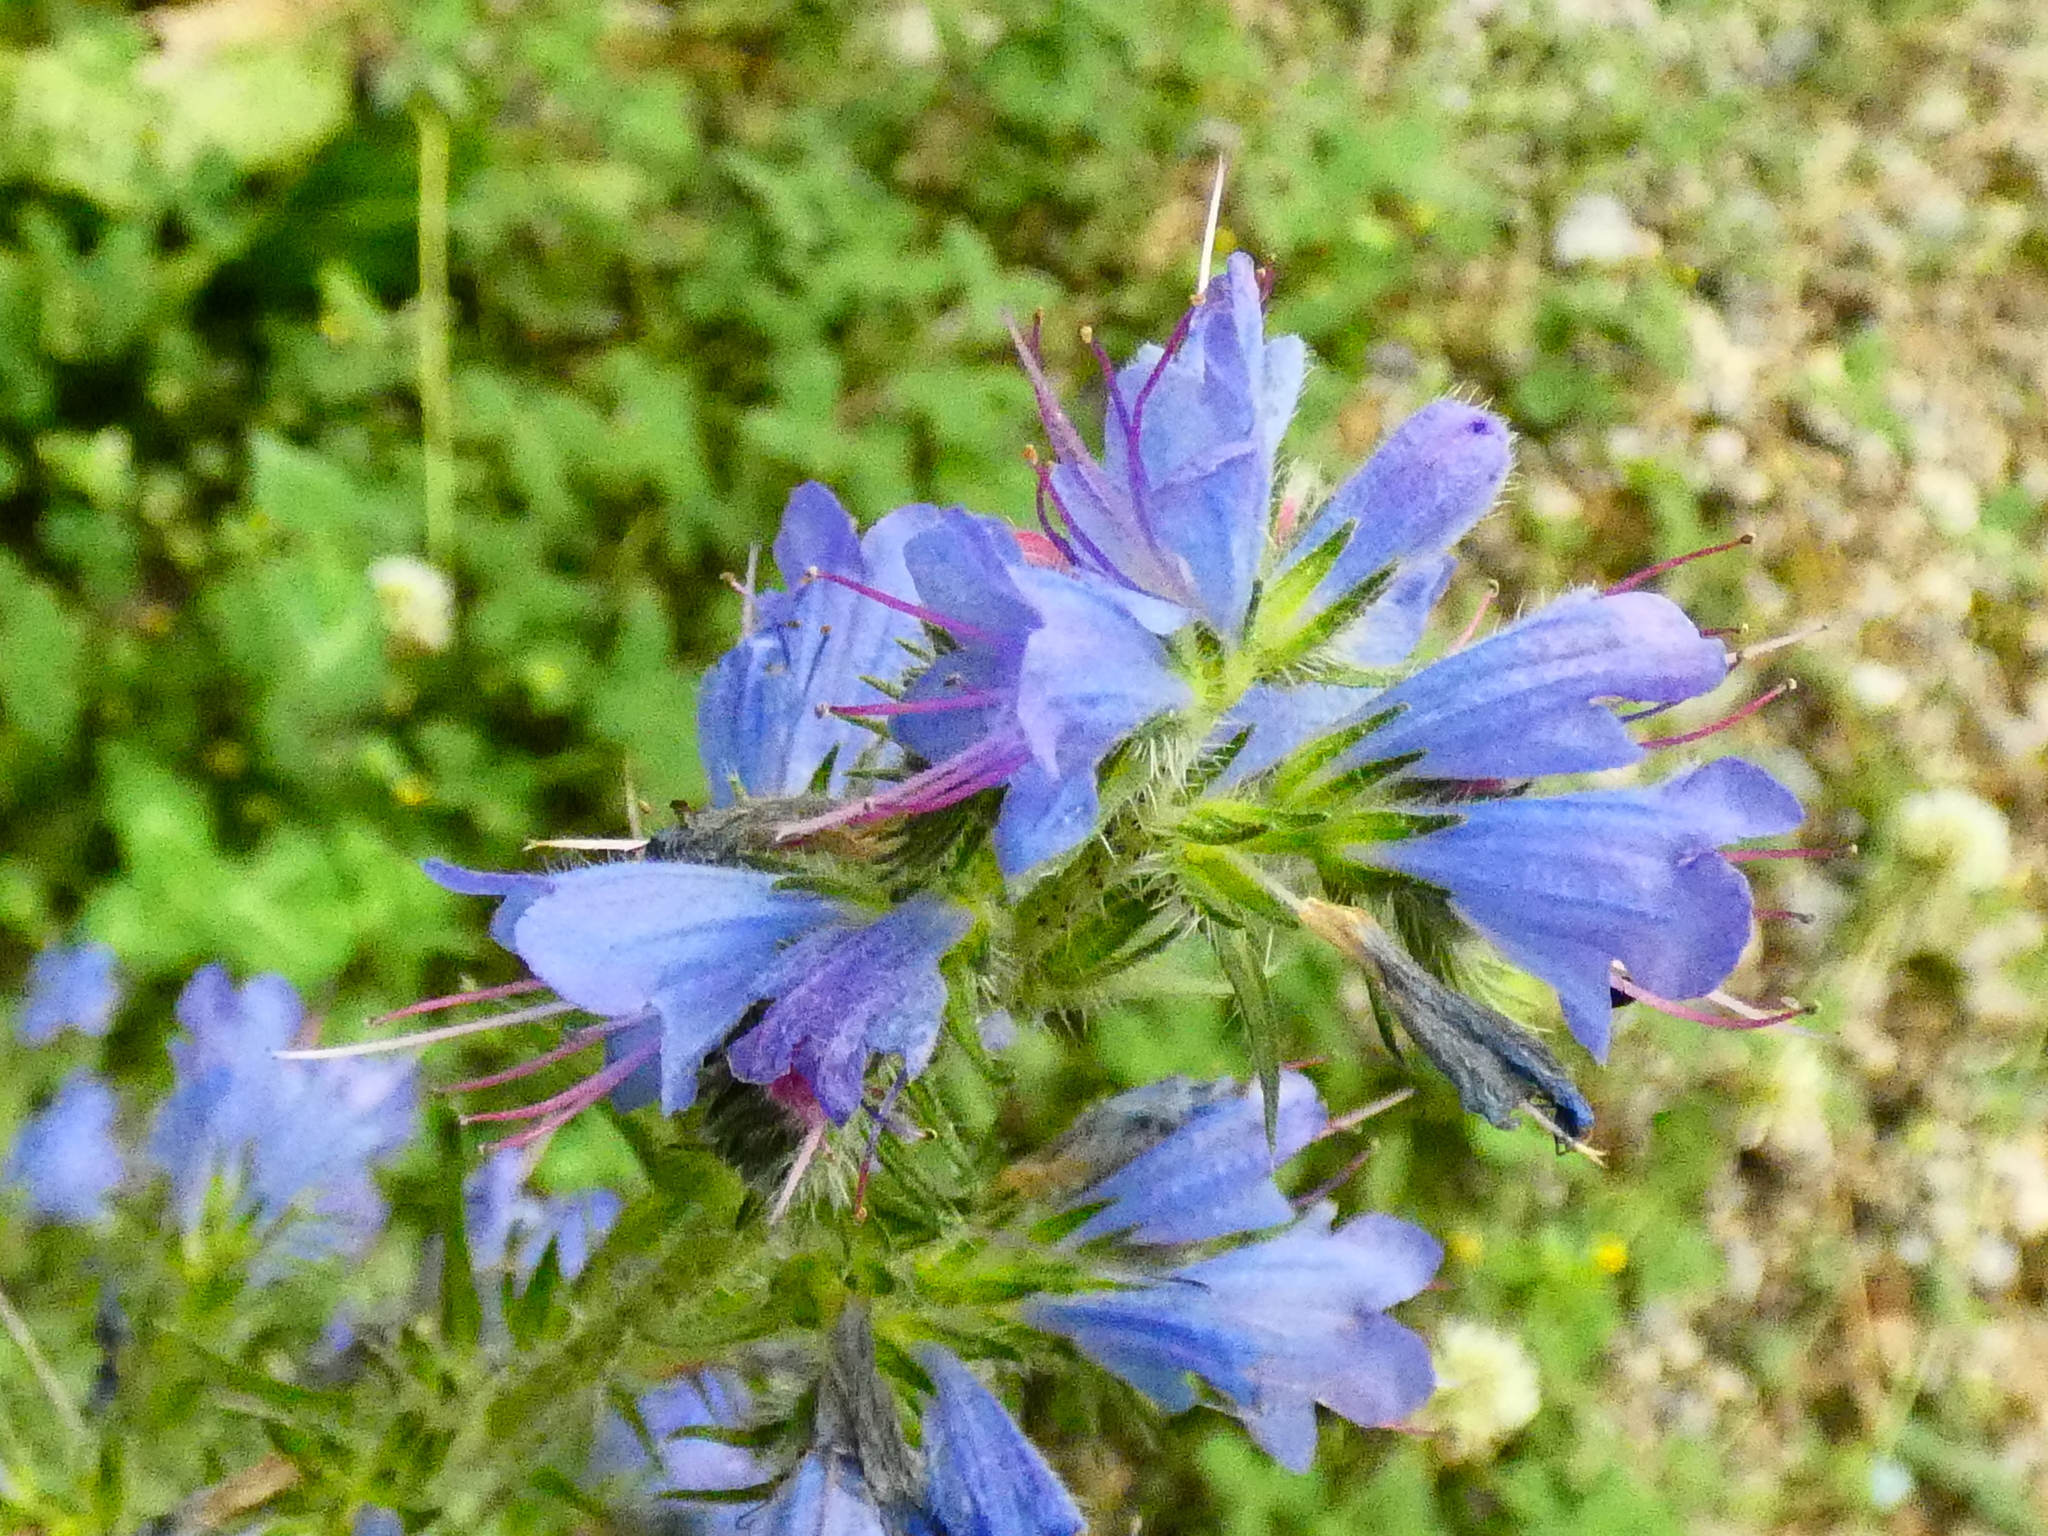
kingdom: Plantae
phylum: Tracheophyta
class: Magnoliopsida
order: Boraginales
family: Boraginaceae
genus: Echium
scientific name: Echium vulgare
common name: Common viper's bugloss
